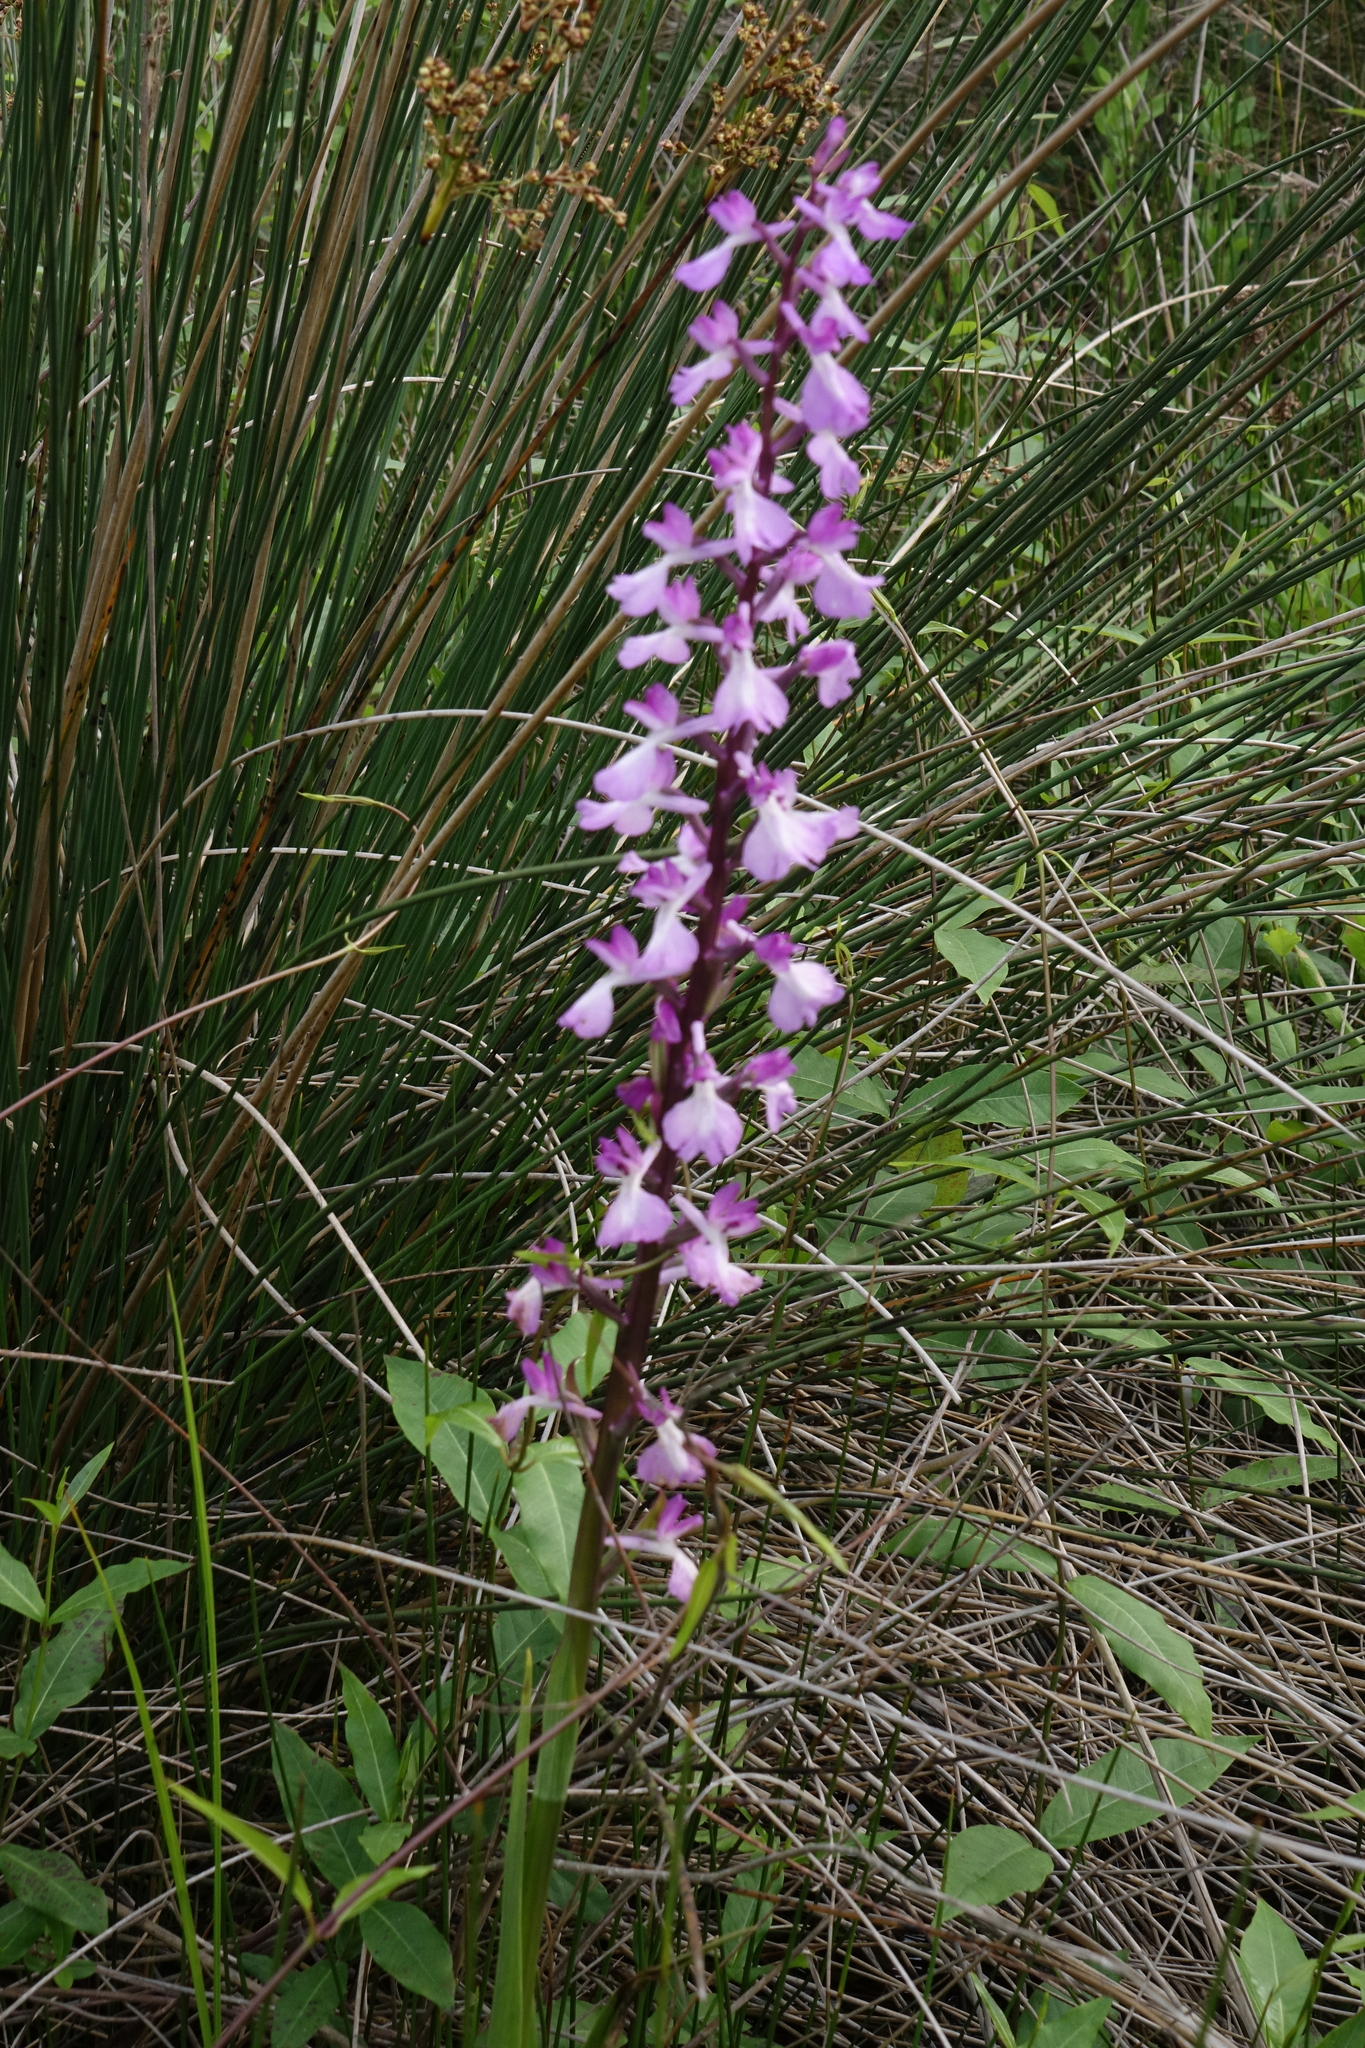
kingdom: Plantae
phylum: Tracheophyta
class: Liliopsida
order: Asparagales
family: Orchidaceae
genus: Anacamptis
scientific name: Anacamptis palustris
